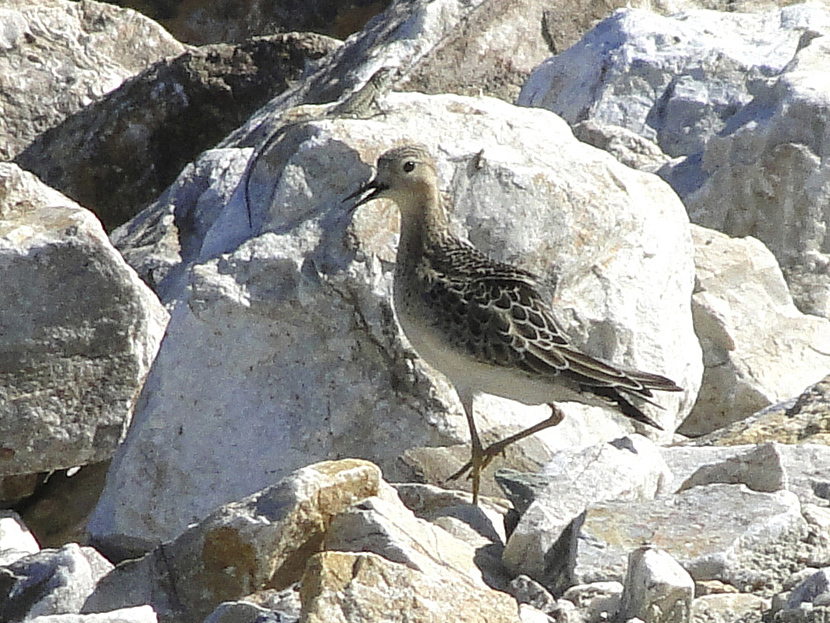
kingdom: Animalia
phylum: Chordata
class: Aves
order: Charadriiformes
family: Scolopacidae
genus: Calidris
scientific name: Calidris subruficollis
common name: Buff-breasted sandpiper
